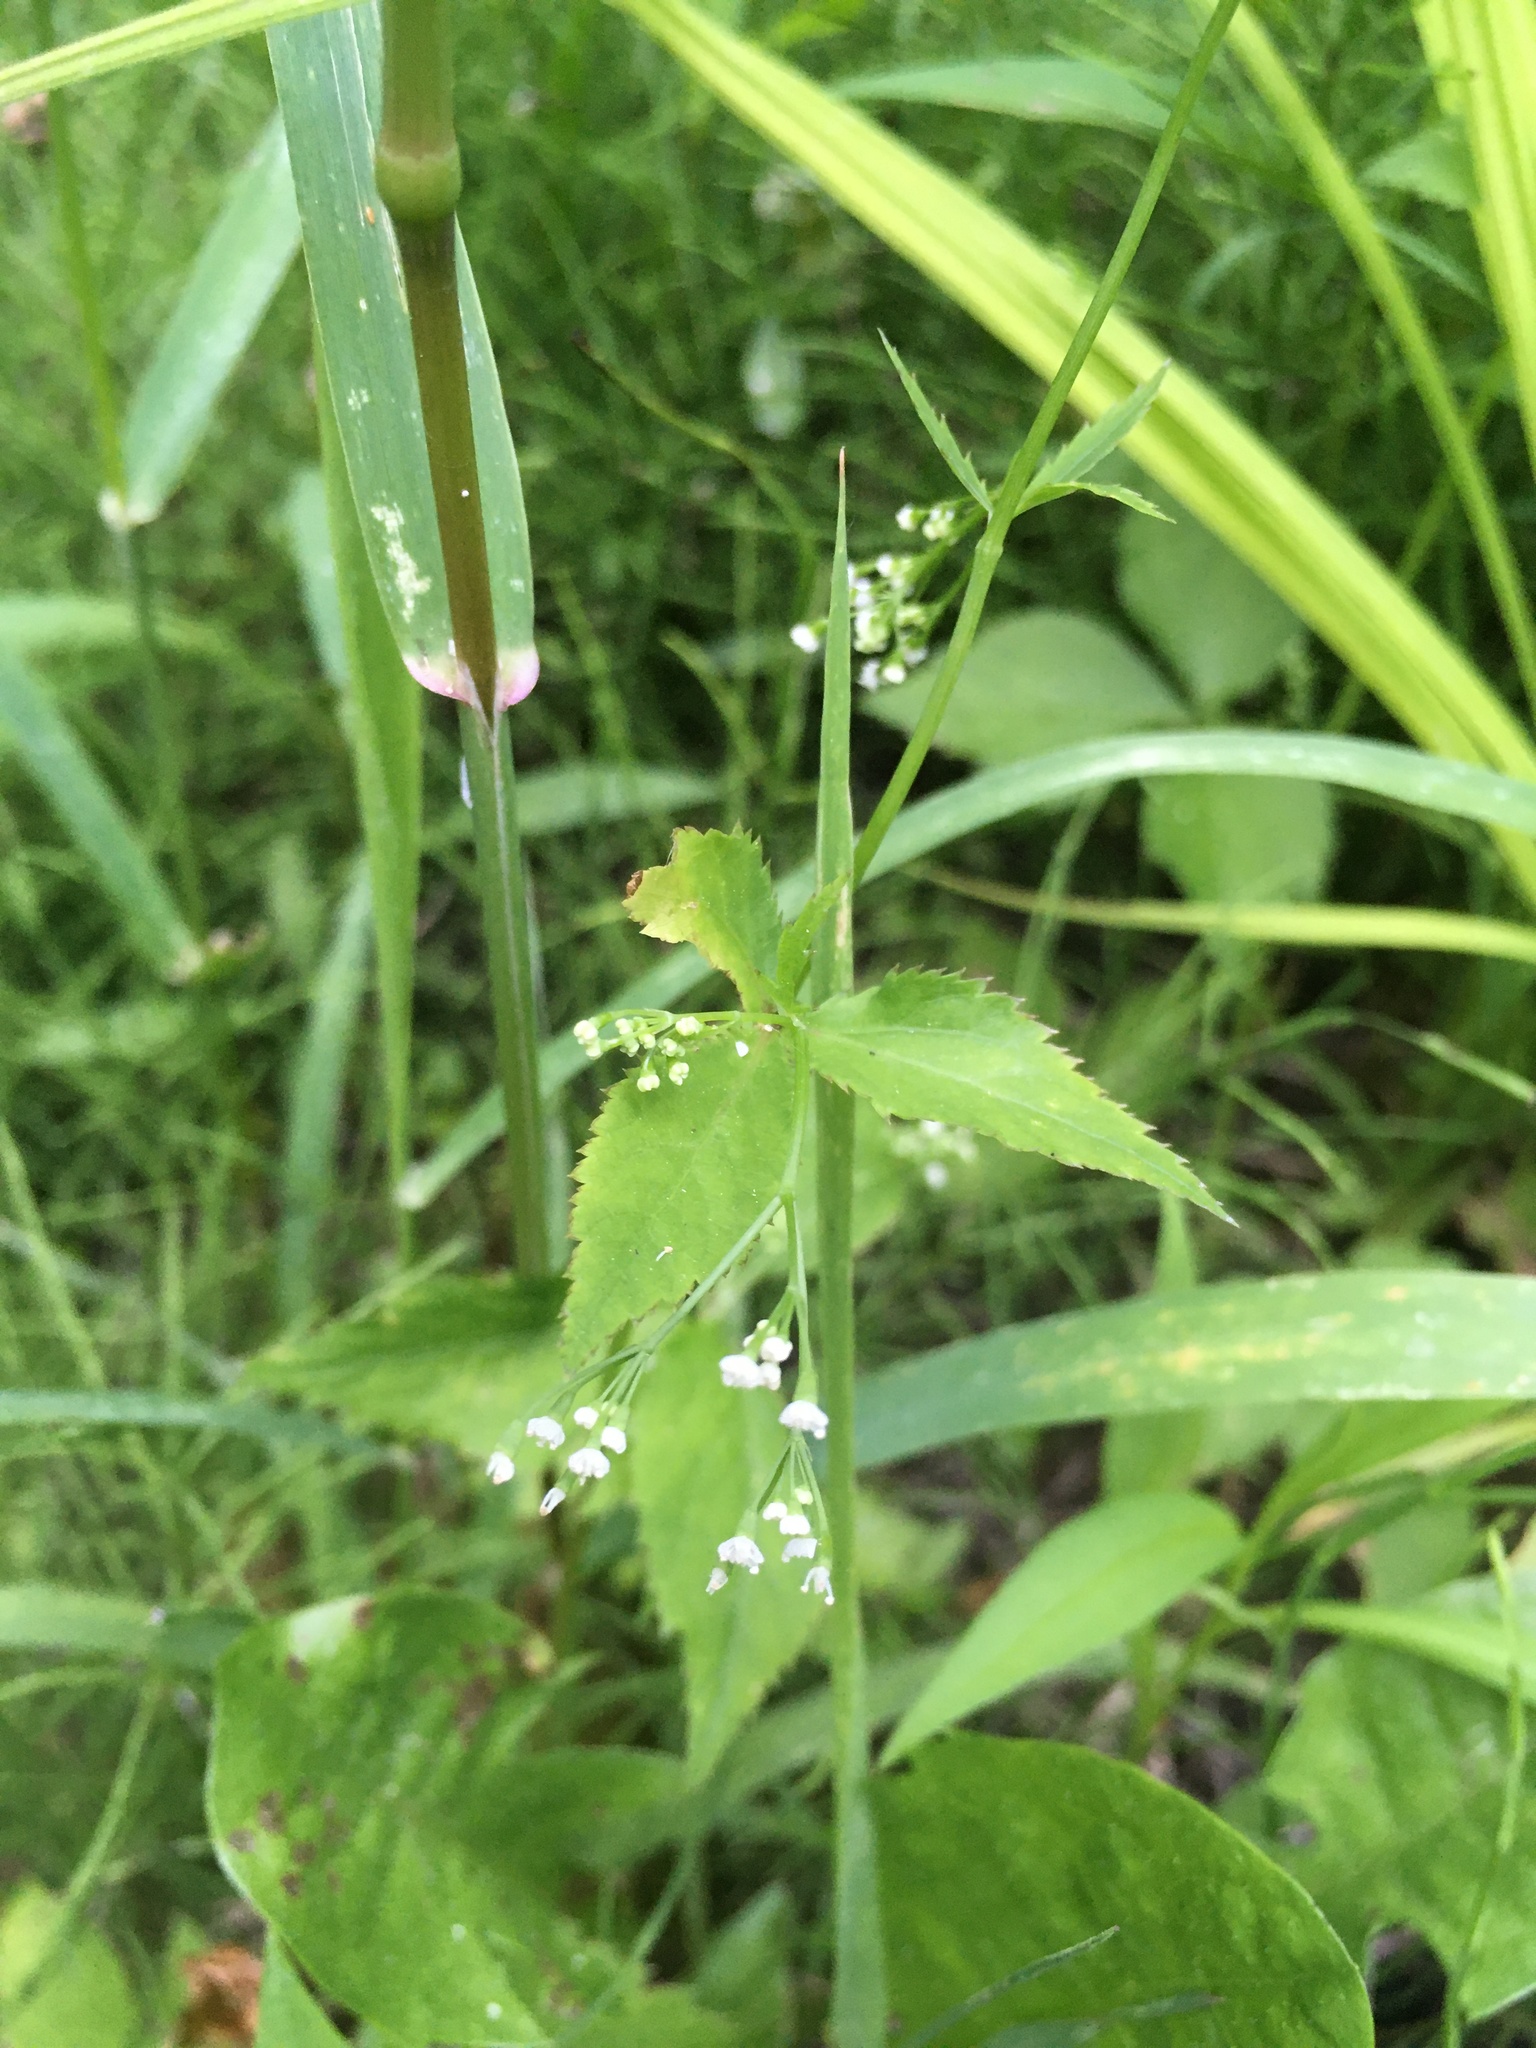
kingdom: Plantae
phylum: Tracheophyta
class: Magnoliopsida
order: Apiales
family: Apiaceae
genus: Cryptotaenia
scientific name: Cryptotaenia canadensis
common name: Honewort
